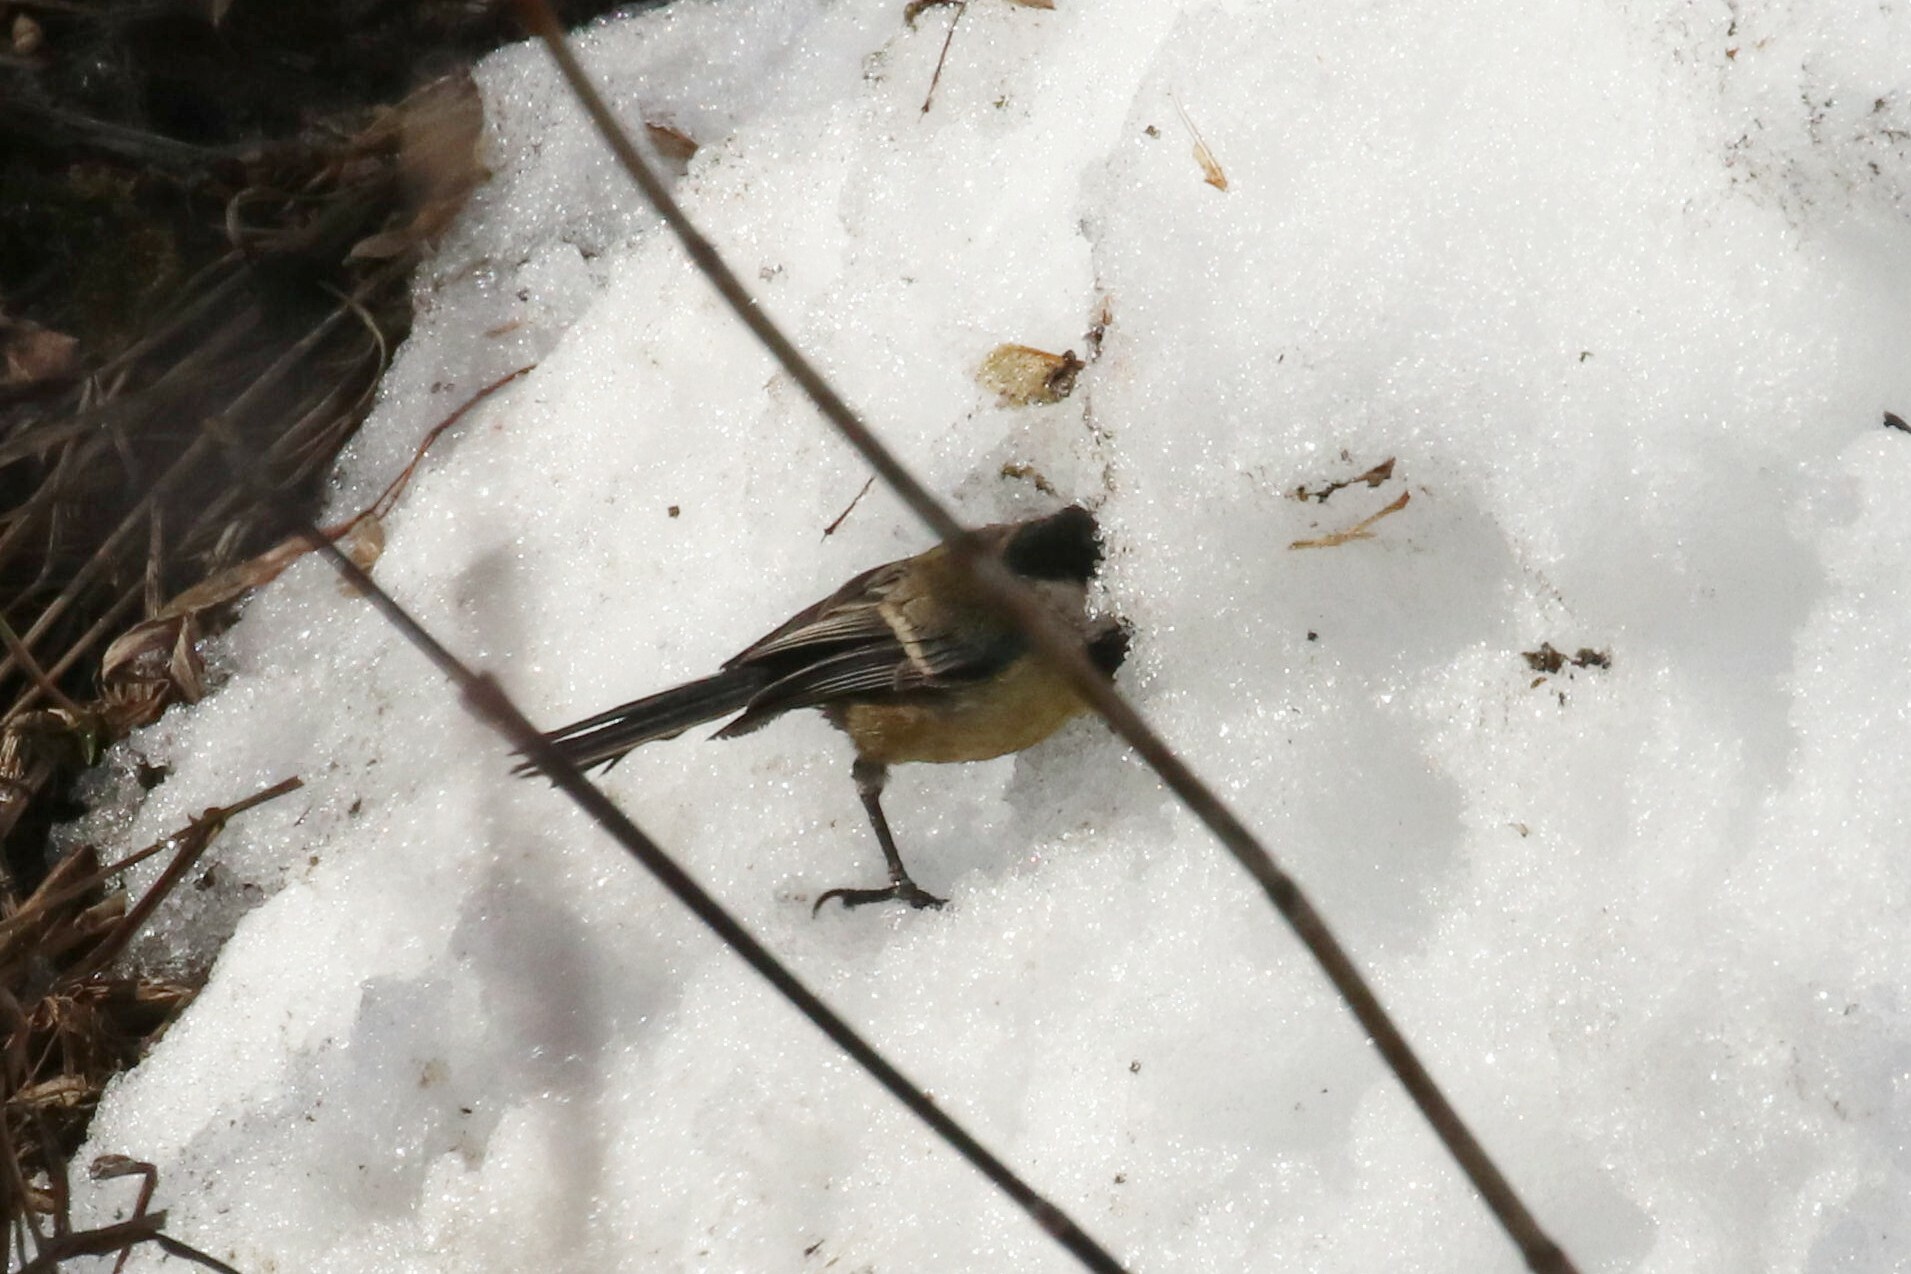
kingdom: Animalia
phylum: Chordata
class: Aves
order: Passeriformes
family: Paridae
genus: Parus
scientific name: Parus major
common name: Great tit
